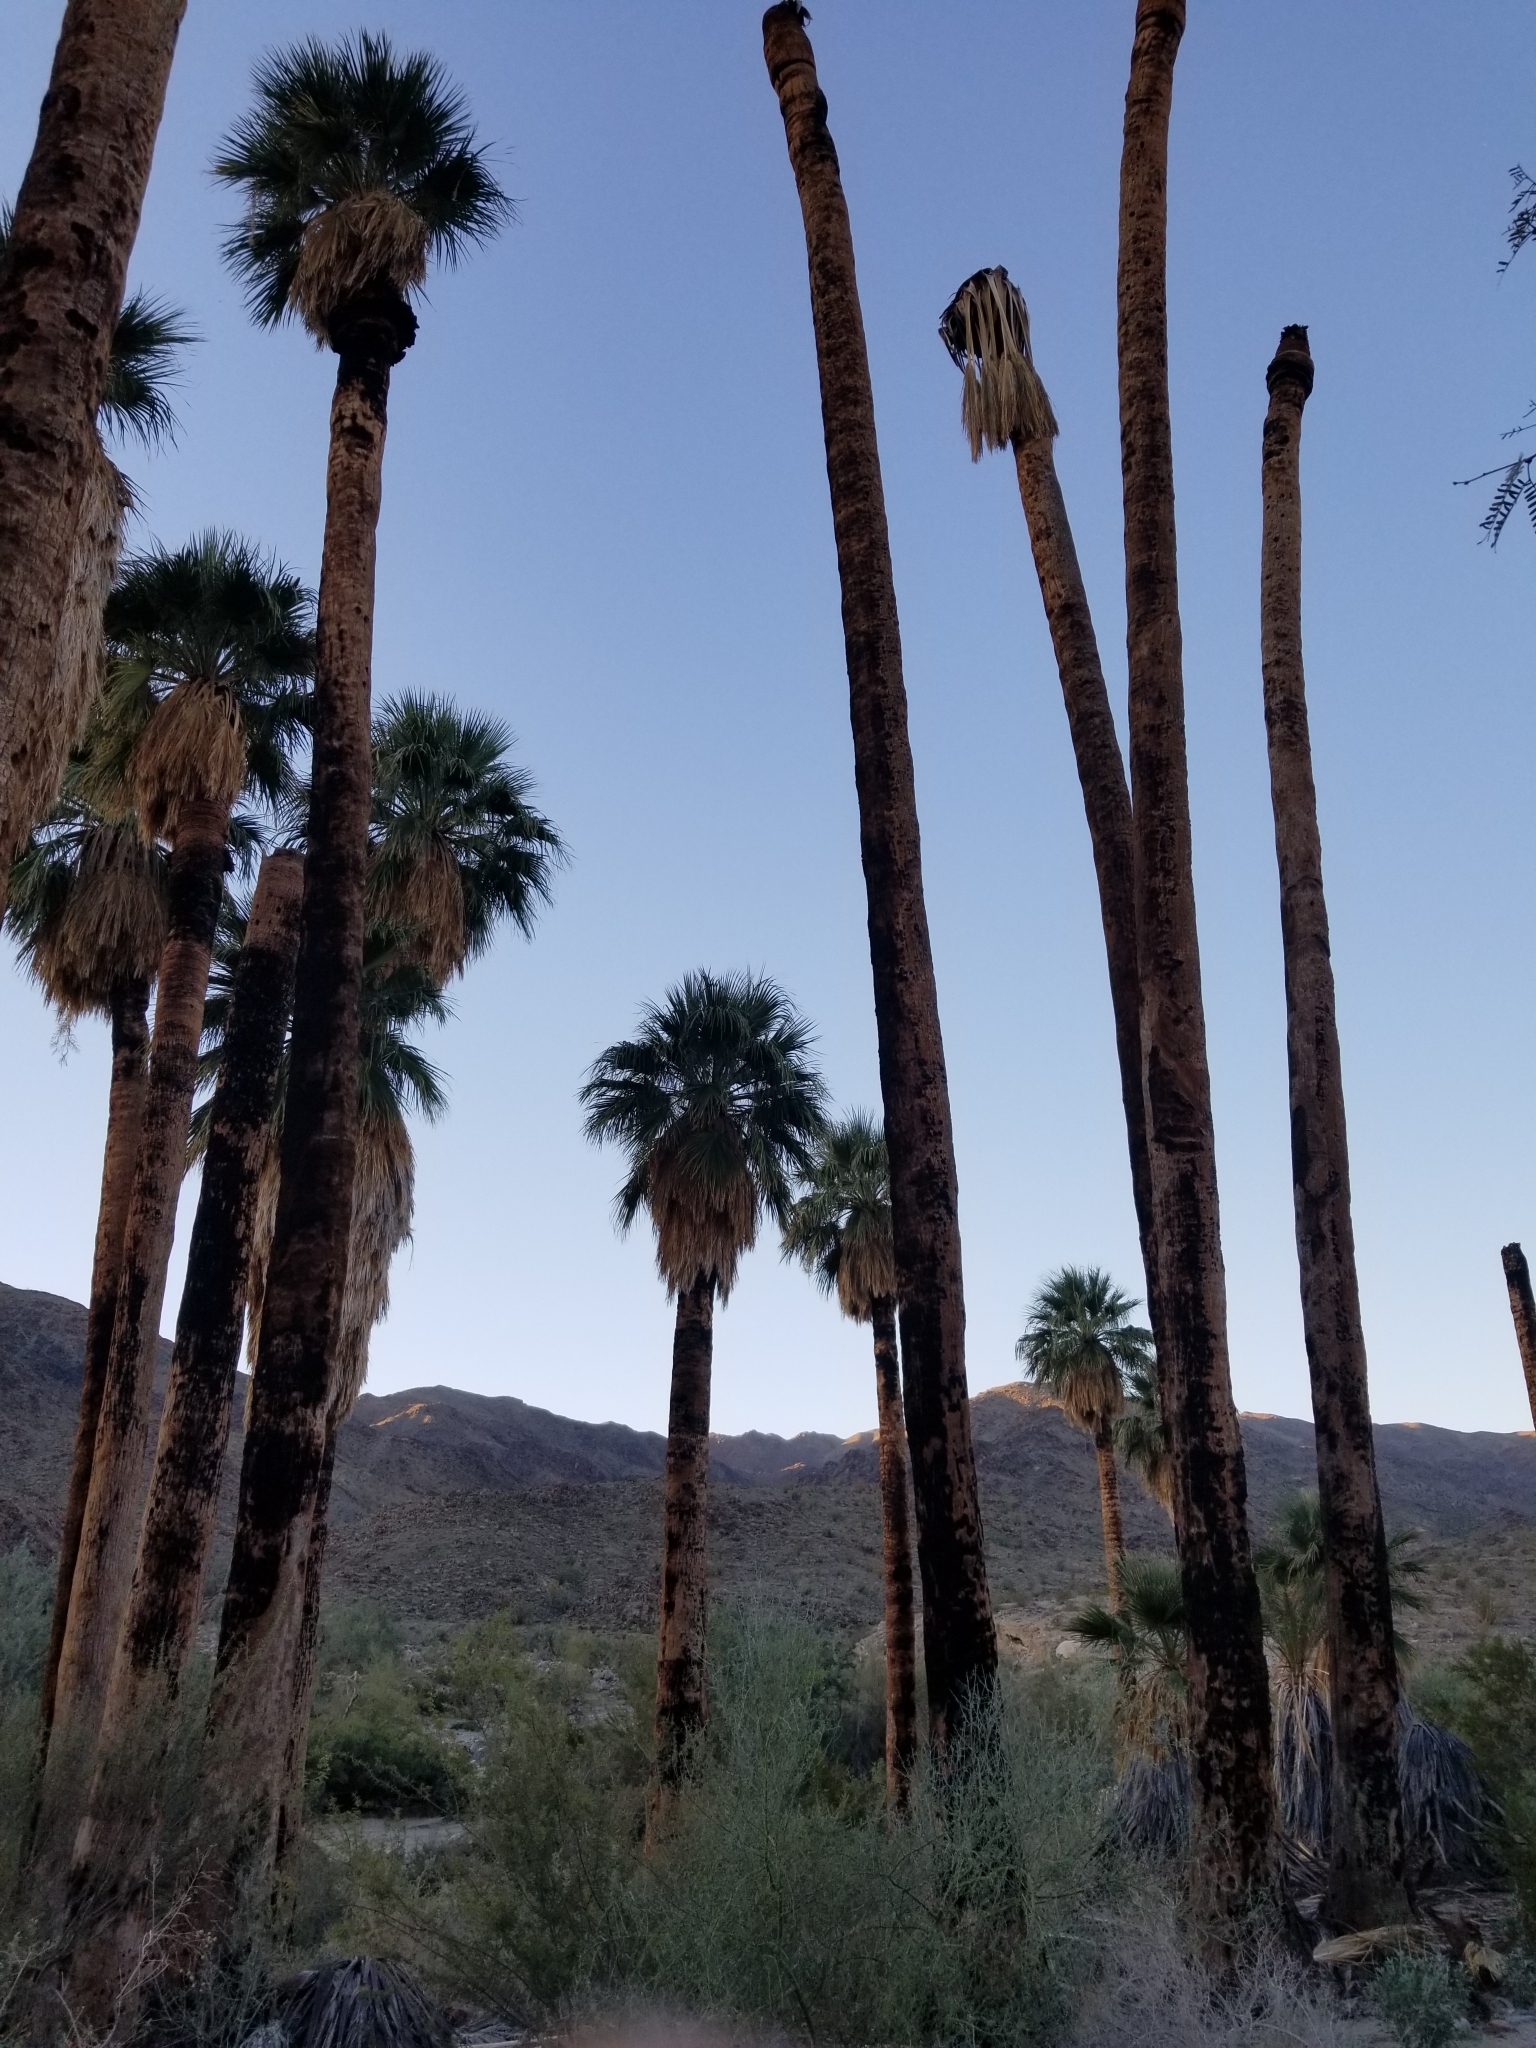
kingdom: Plantae
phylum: Tracheophyta
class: Liliopsida
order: Arecales
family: Arecaceae
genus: Washingtonia
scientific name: Washingtonia filifera
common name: California fan palm
